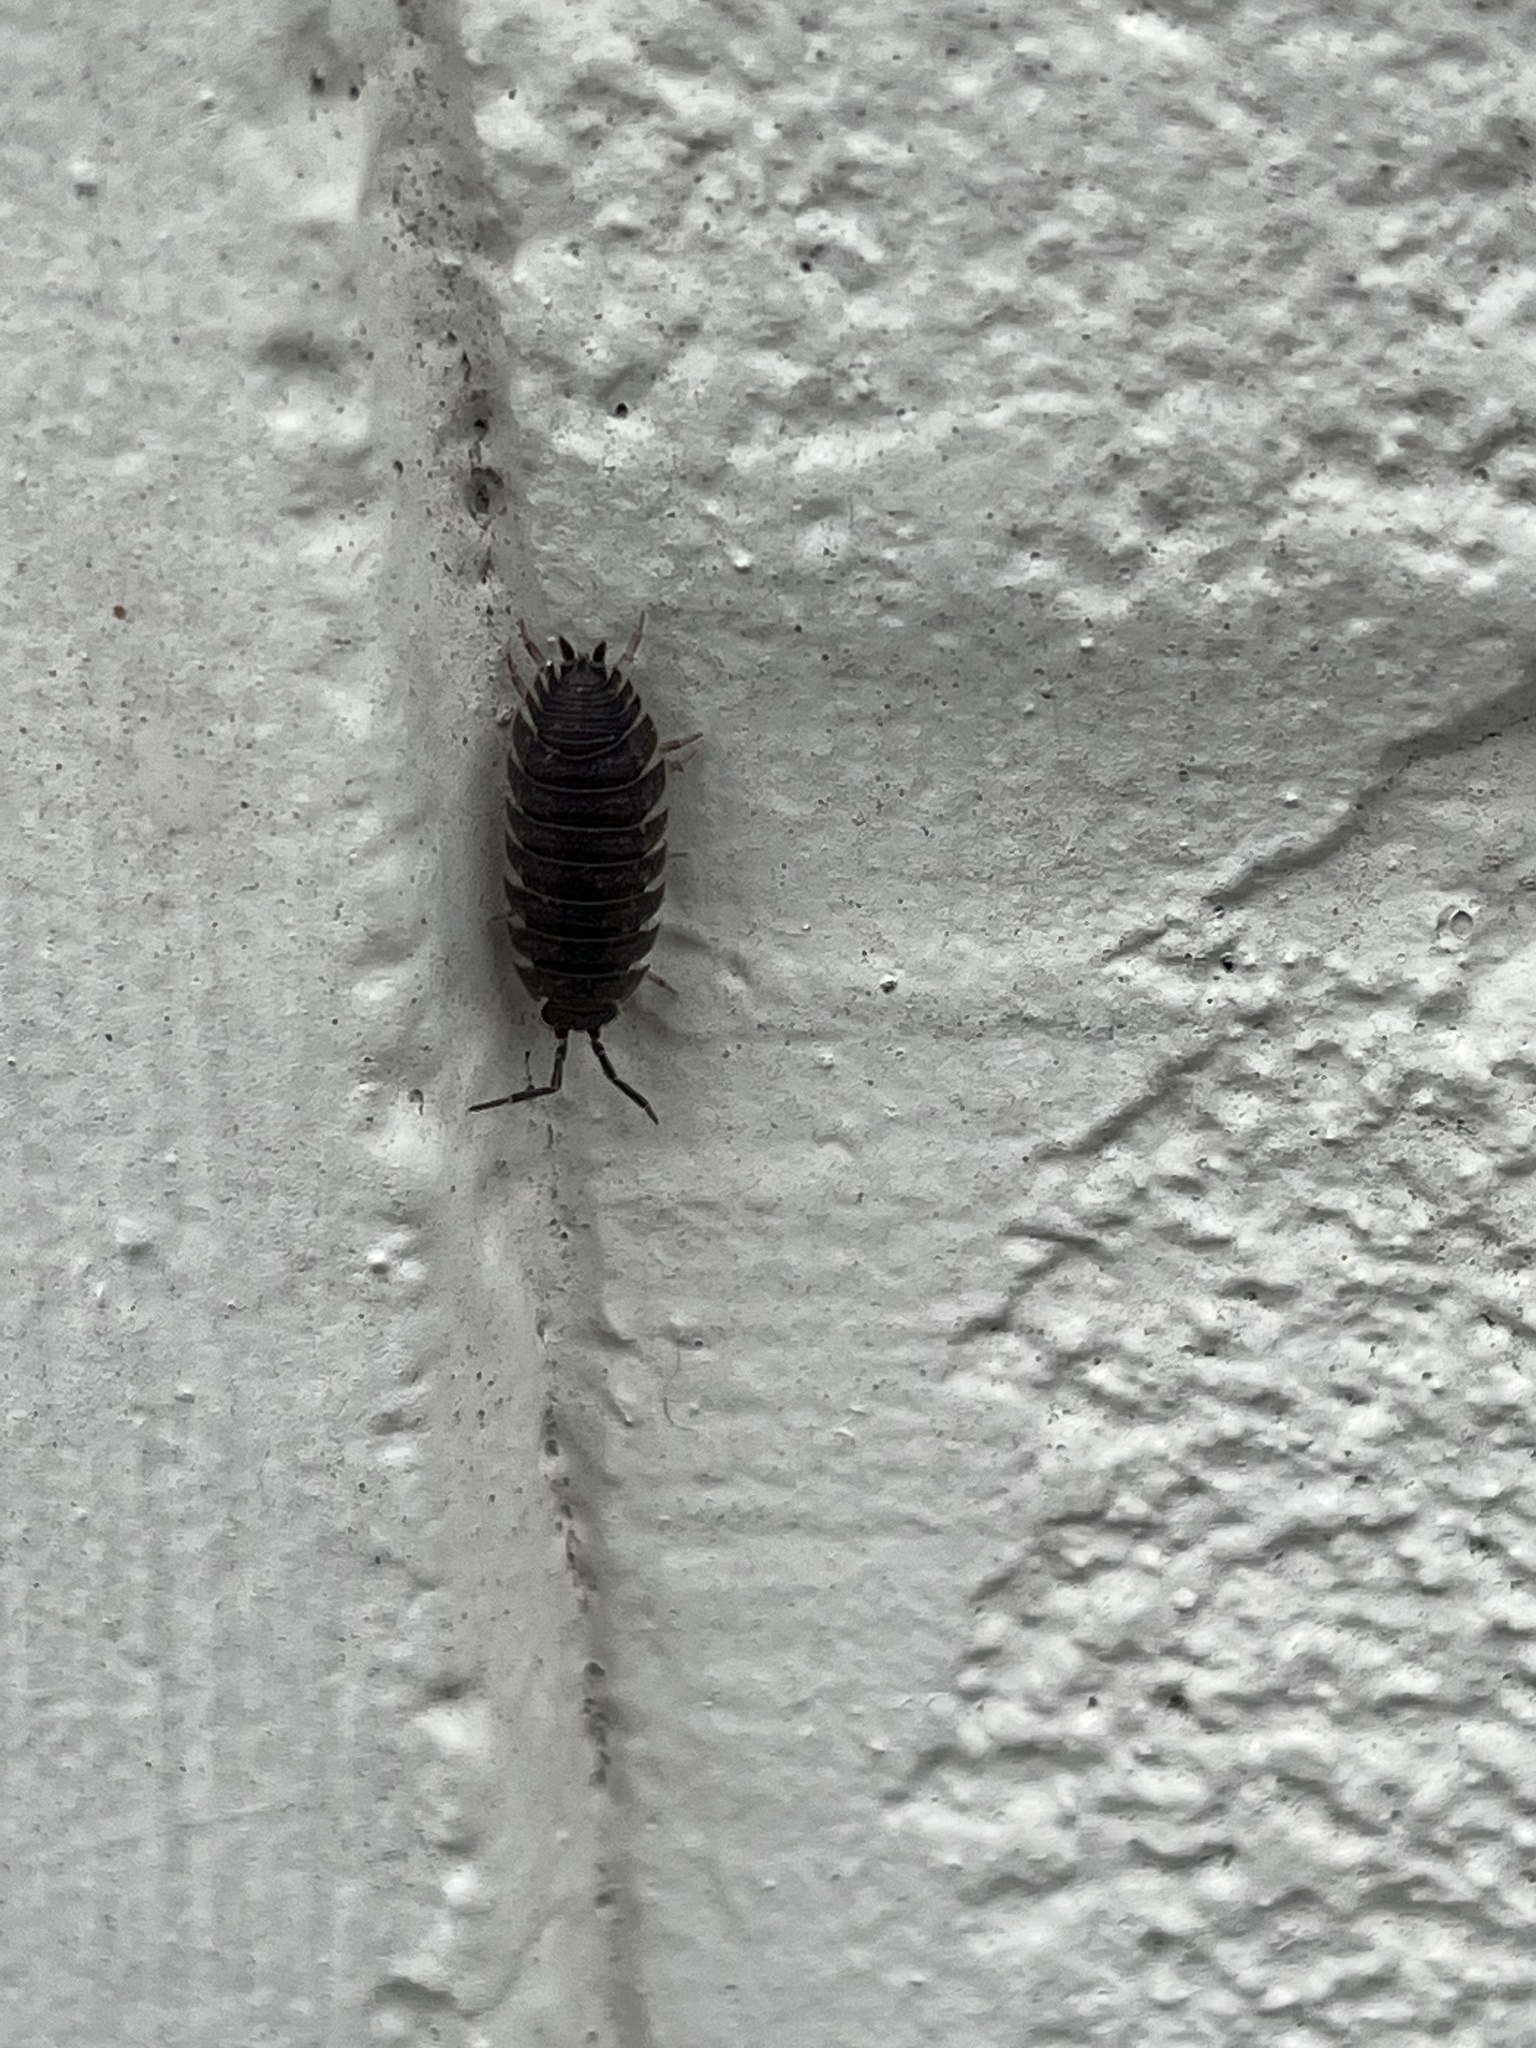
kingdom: Animalia
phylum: Arthropoda
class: Malacostraca
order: Isopoda
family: Porcellionidae
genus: Porcellio
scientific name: Porcellio scaber
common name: Common rough woodlouse
